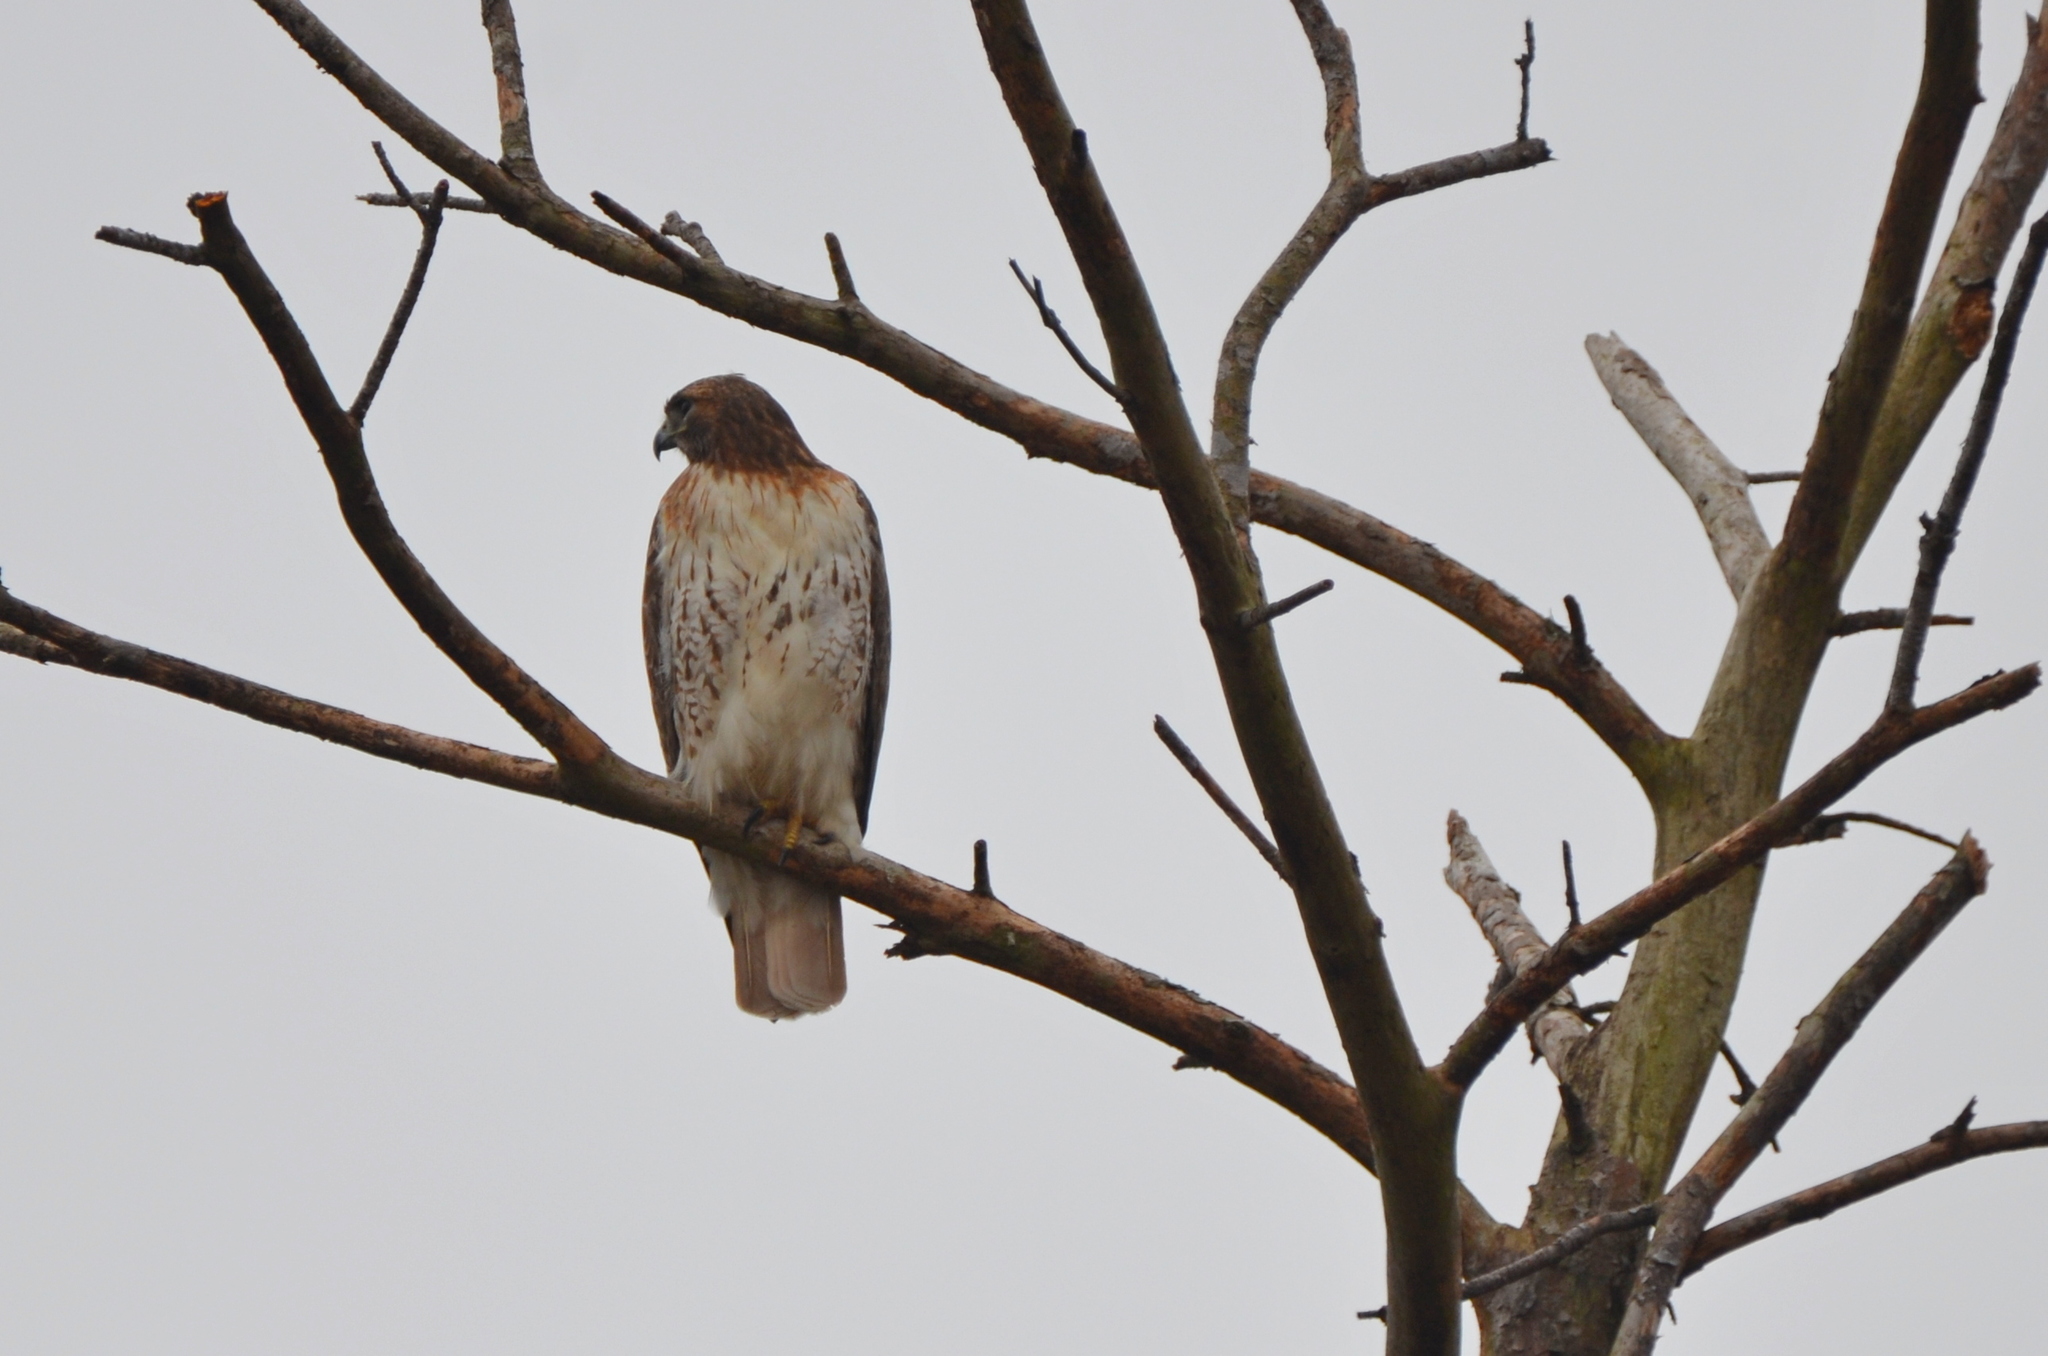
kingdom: Animalia
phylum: Chordata
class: Aves
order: Accipitriformes
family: Accipitridae
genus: Buteo
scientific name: Buteo jamaicensis
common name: Red-tailed hawk
